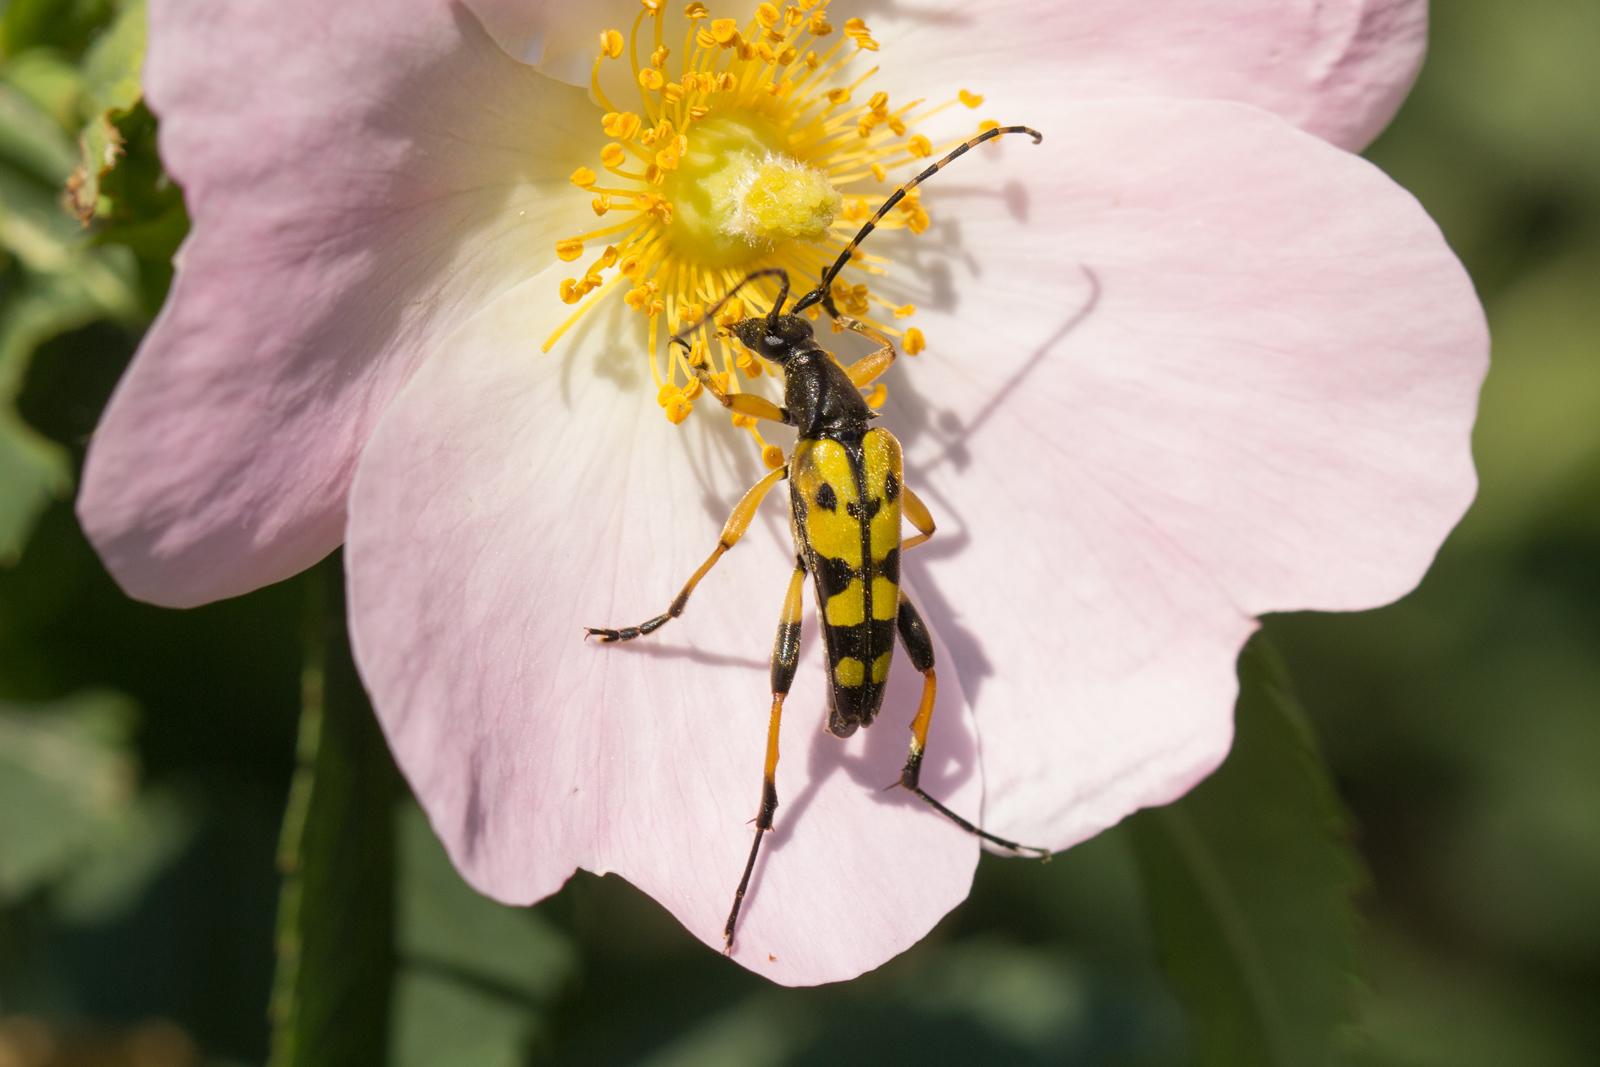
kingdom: Animalia
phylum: Arthropoda
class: Insecta
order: Coleoptera
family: Cerambycidae
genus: Rutpela
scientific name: Rutpela maculata
